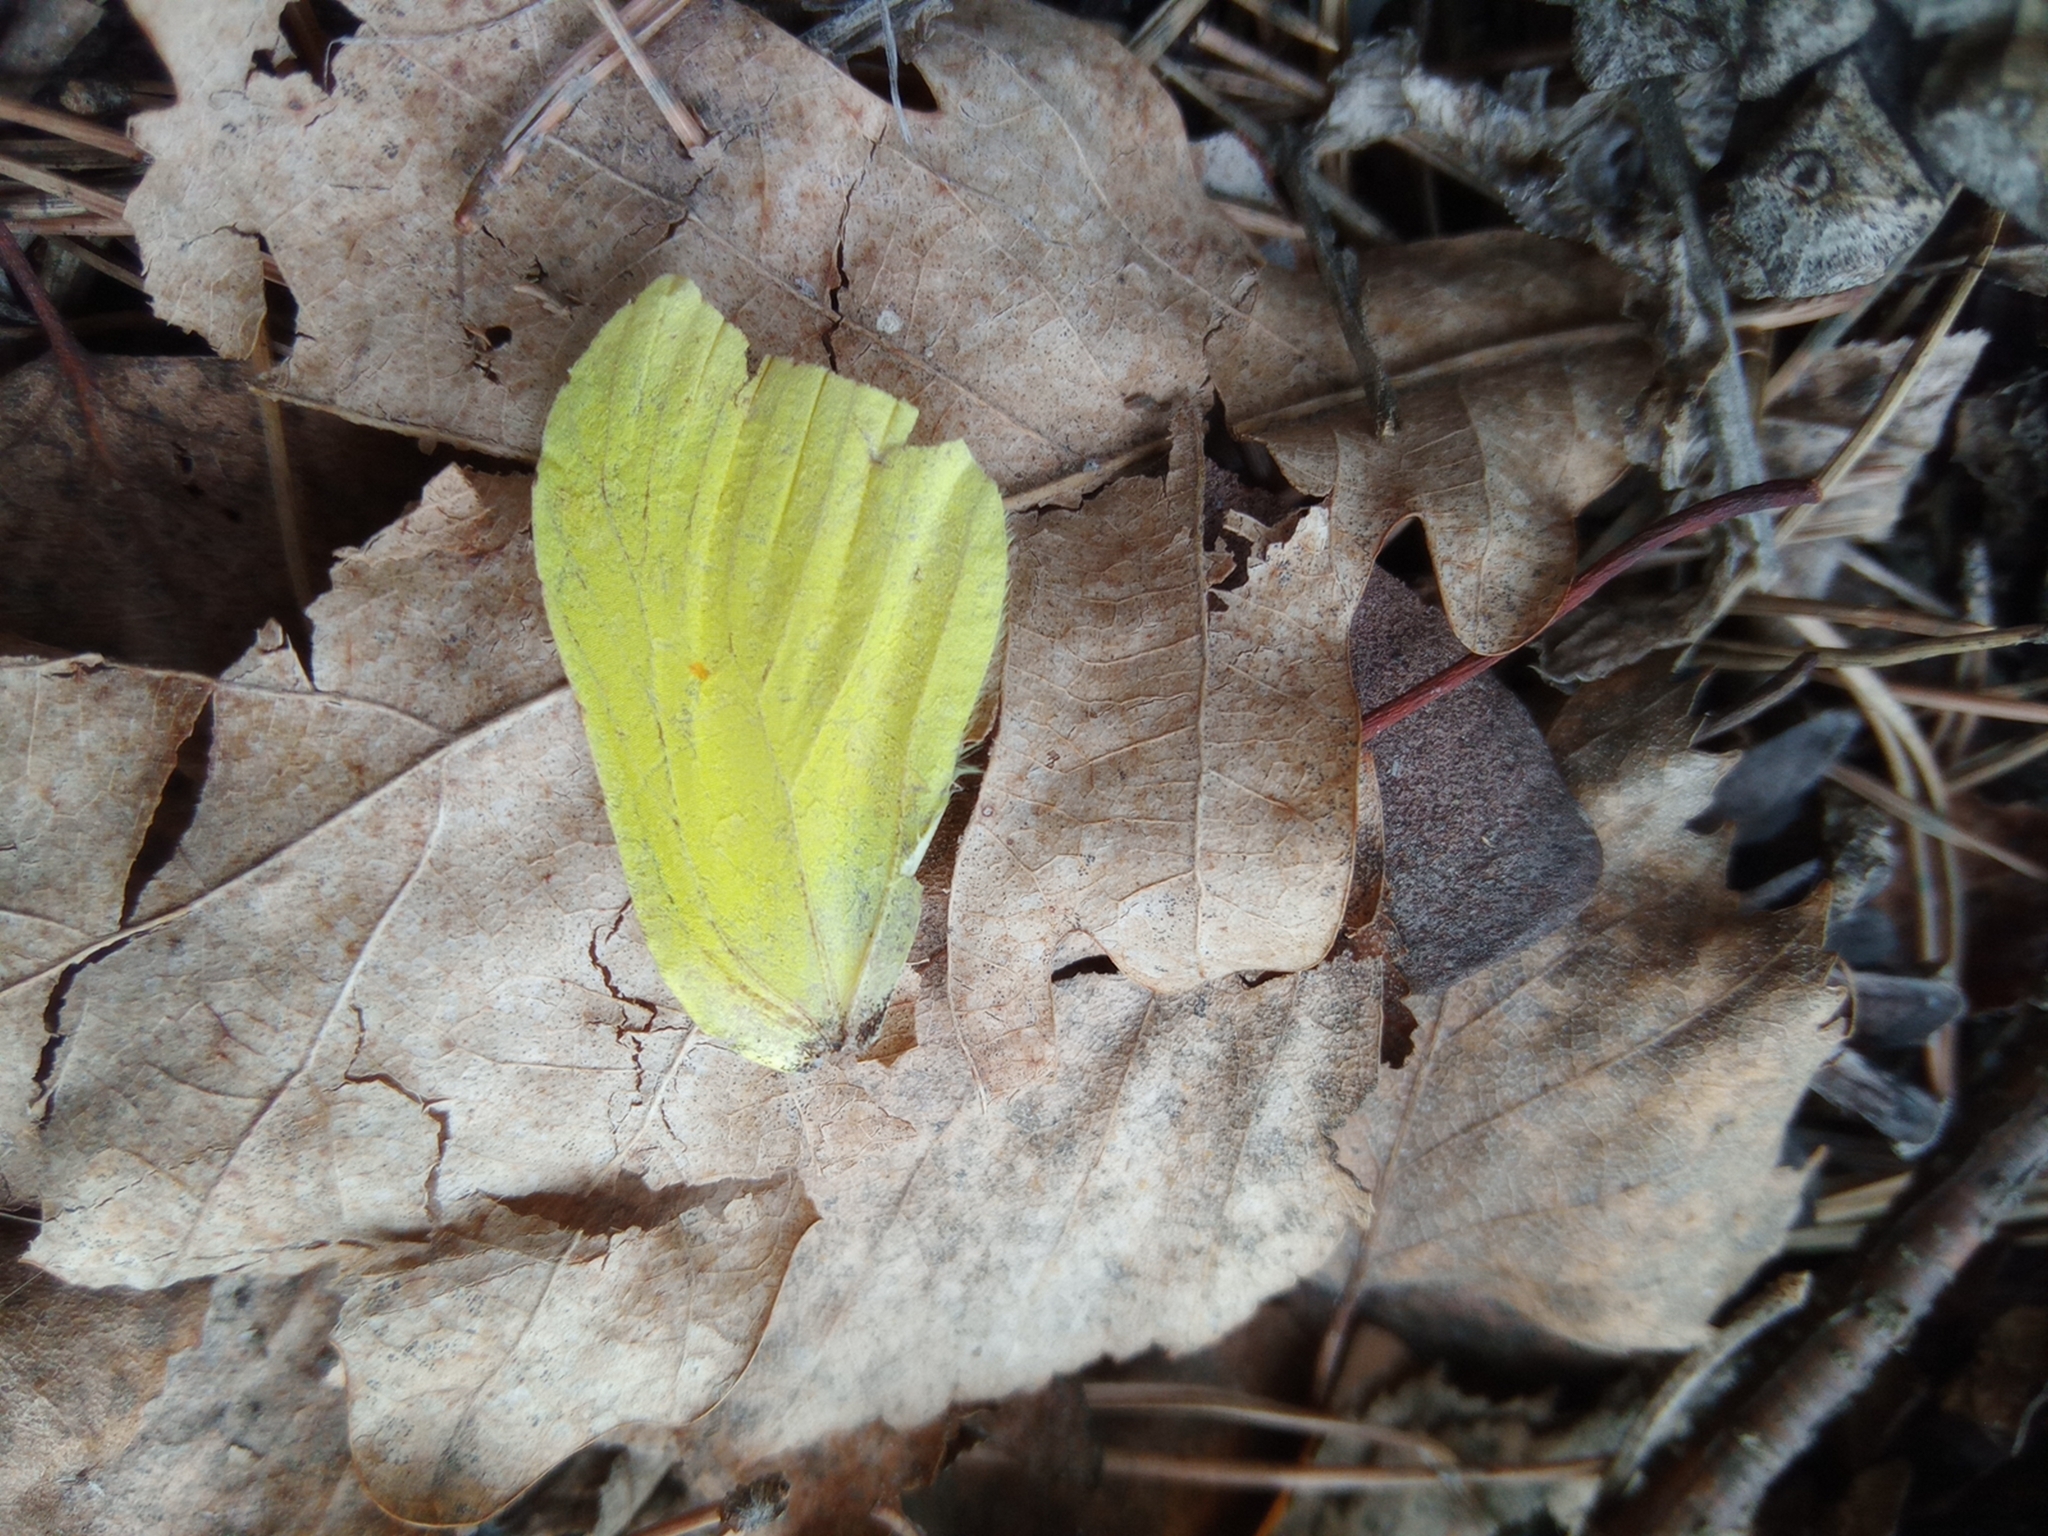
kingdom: Animalia
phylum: Arthropoda
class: Insecta
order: Lepidoptera
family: Pieridae
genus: Gonepteryx
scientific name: Gonepteryx rhamni
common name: Brimstone
